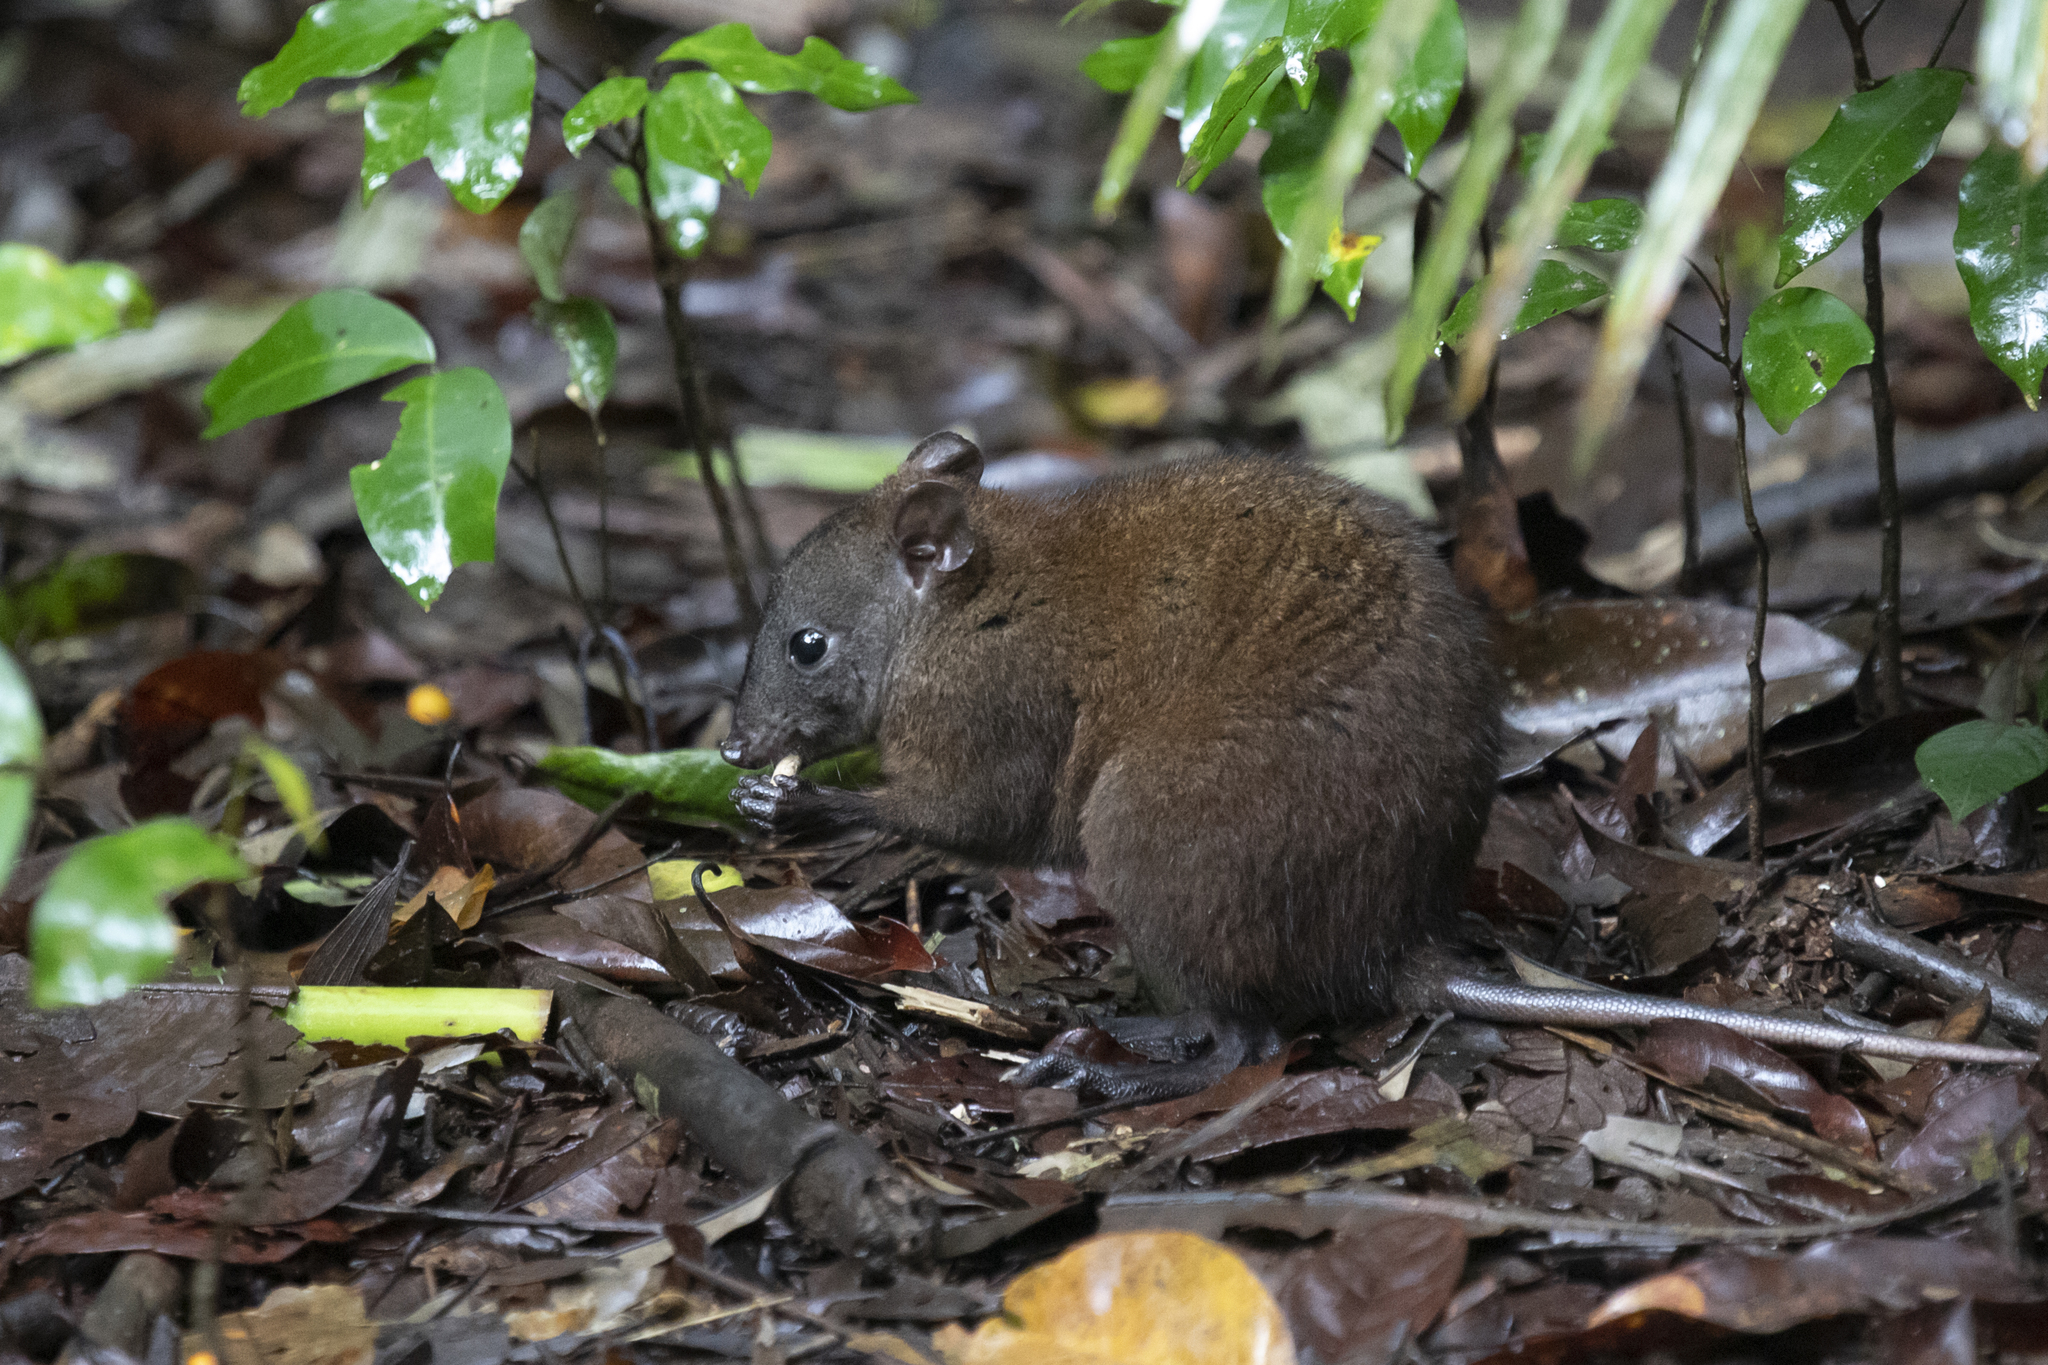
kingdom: Animalia
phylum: Chordata
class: Mammalia
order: Diprotodontia
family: Hypsiprymnodontidae
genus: Hypsiprymnodon
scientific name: Hypsiprymnodon moschatus
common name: Musky rat-kangaroo
